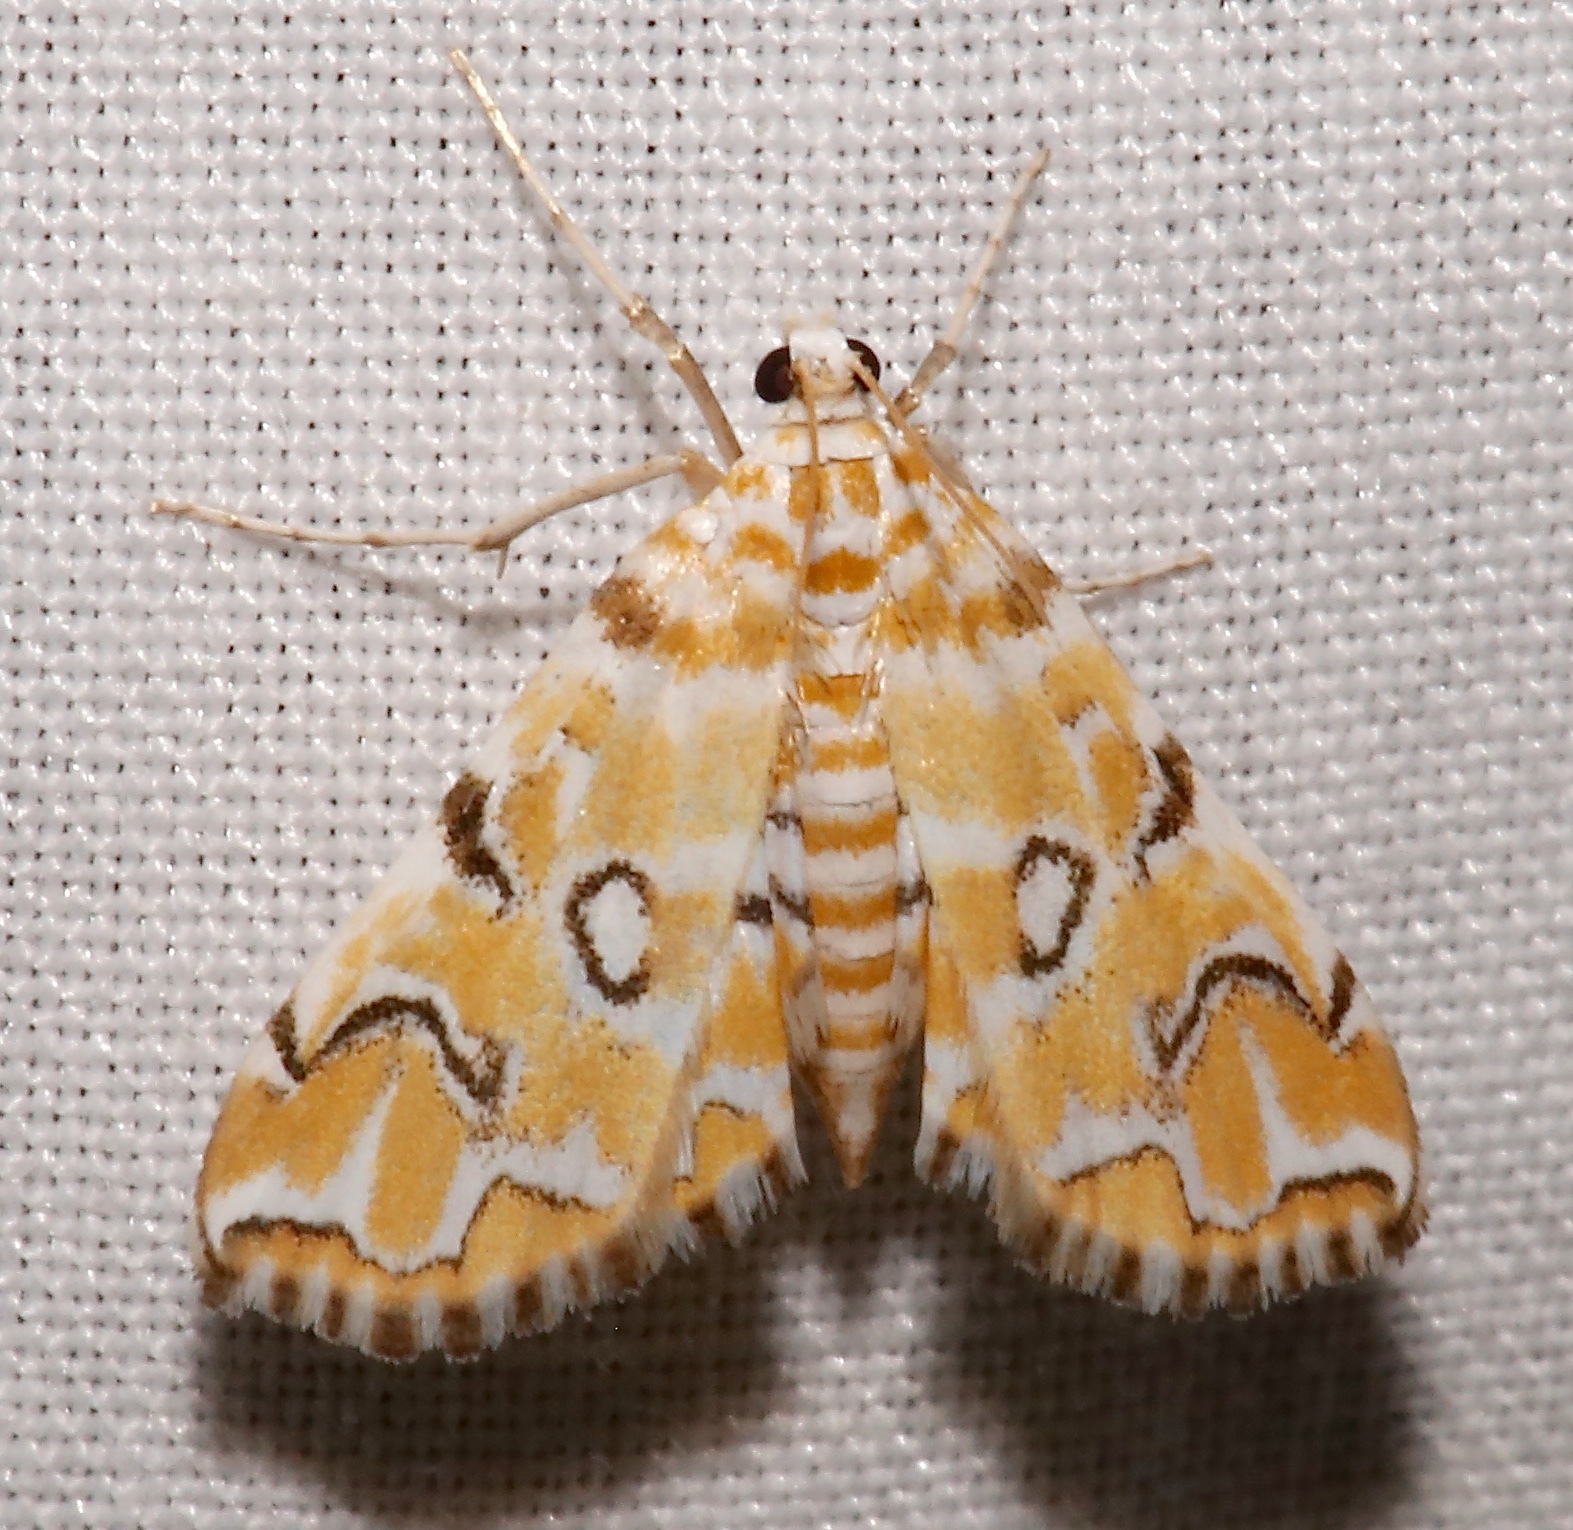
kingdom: Animalia
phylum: Arthropoda
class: Insecta
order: Lepidoptera
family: Crambidae
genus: Elophila
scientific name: Elophila icciusalis
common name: Pondside pyralid moth
